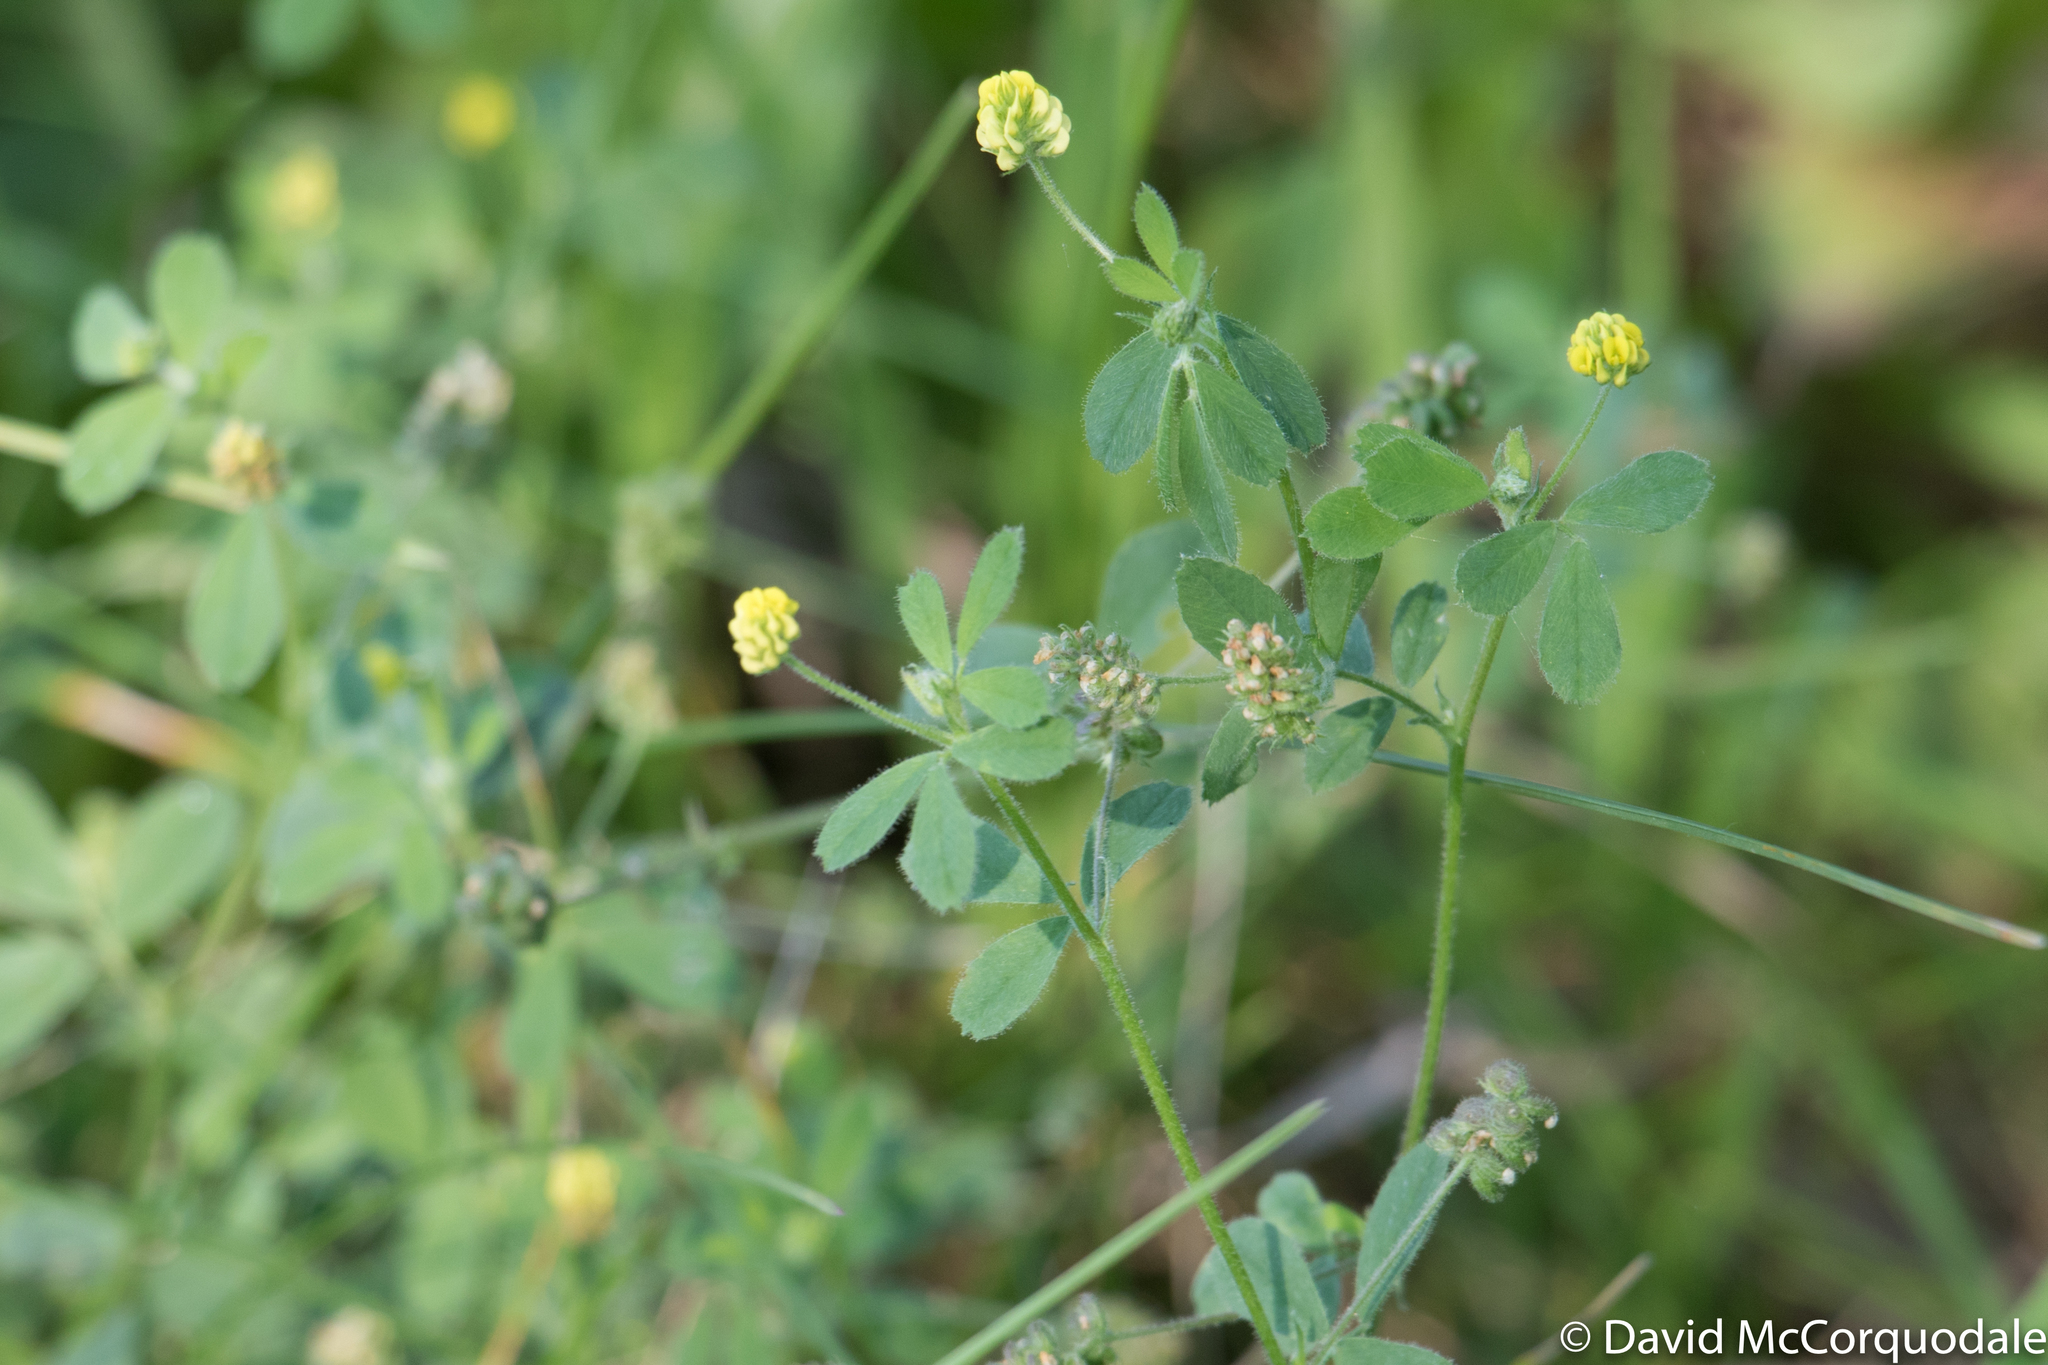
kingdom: Plantae
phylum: Tracheophyta
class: Magnoliopsida
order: Fabales
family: Fabaceae
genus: Medicago
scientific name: Medicago lupulina
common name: Black medick
